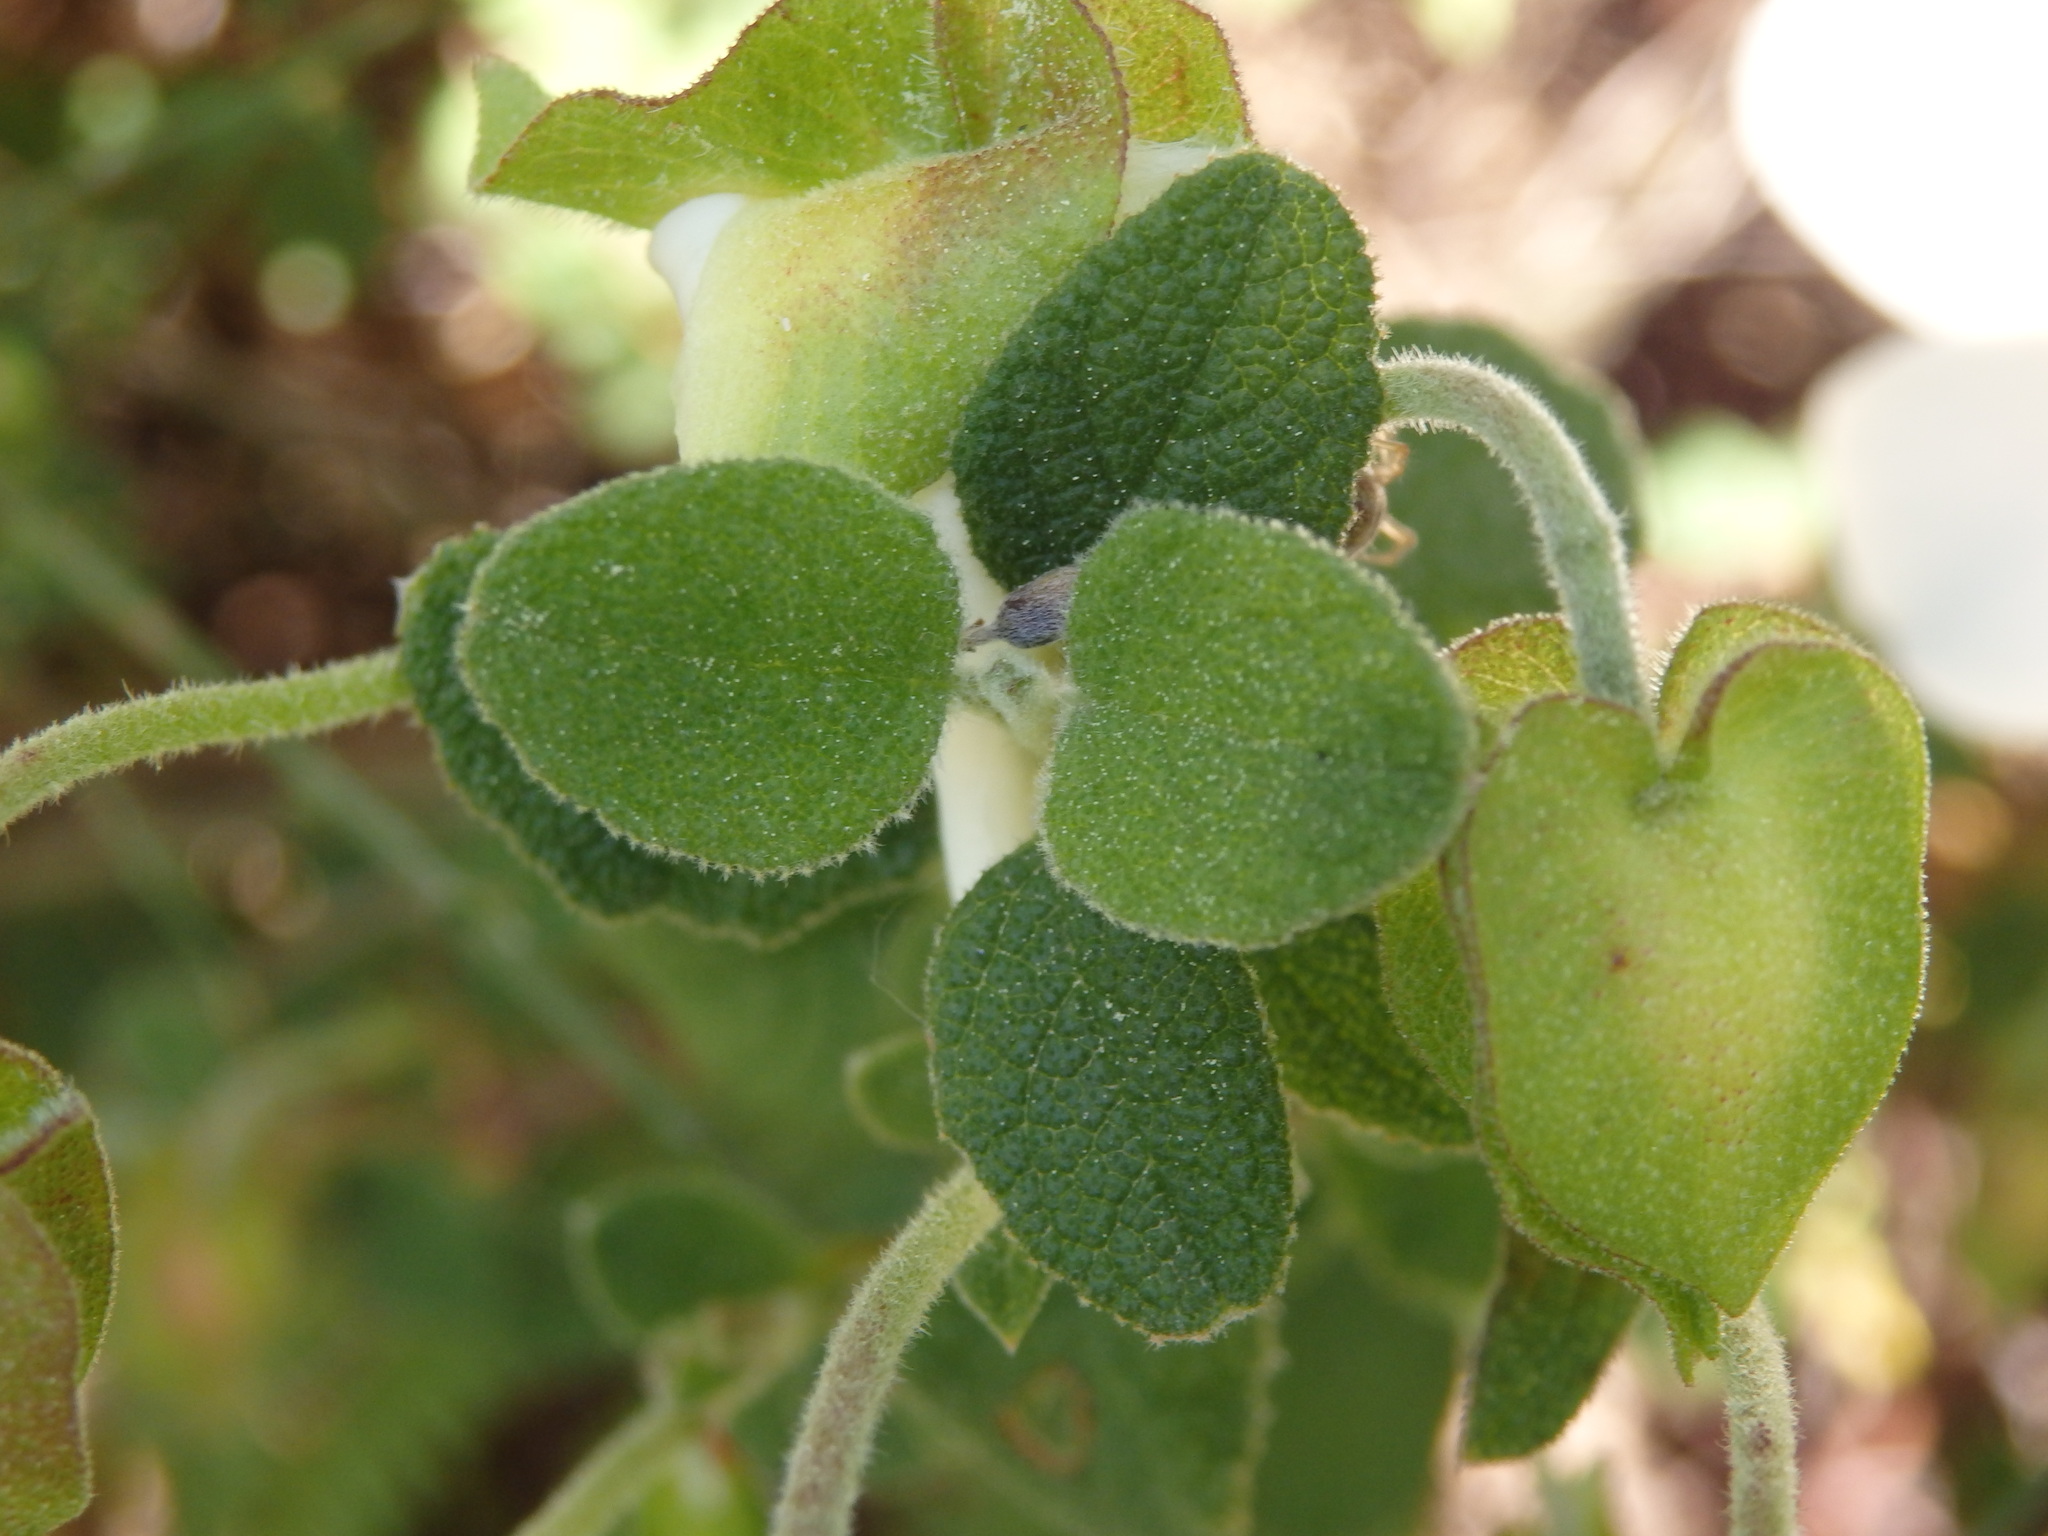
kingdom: Plantae
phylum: Tracheophyta
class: Magnoliopsida
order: Malvales
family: Cistaceae
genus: Cistus
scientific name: Cistus salviifolius
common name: Salvia cistus
